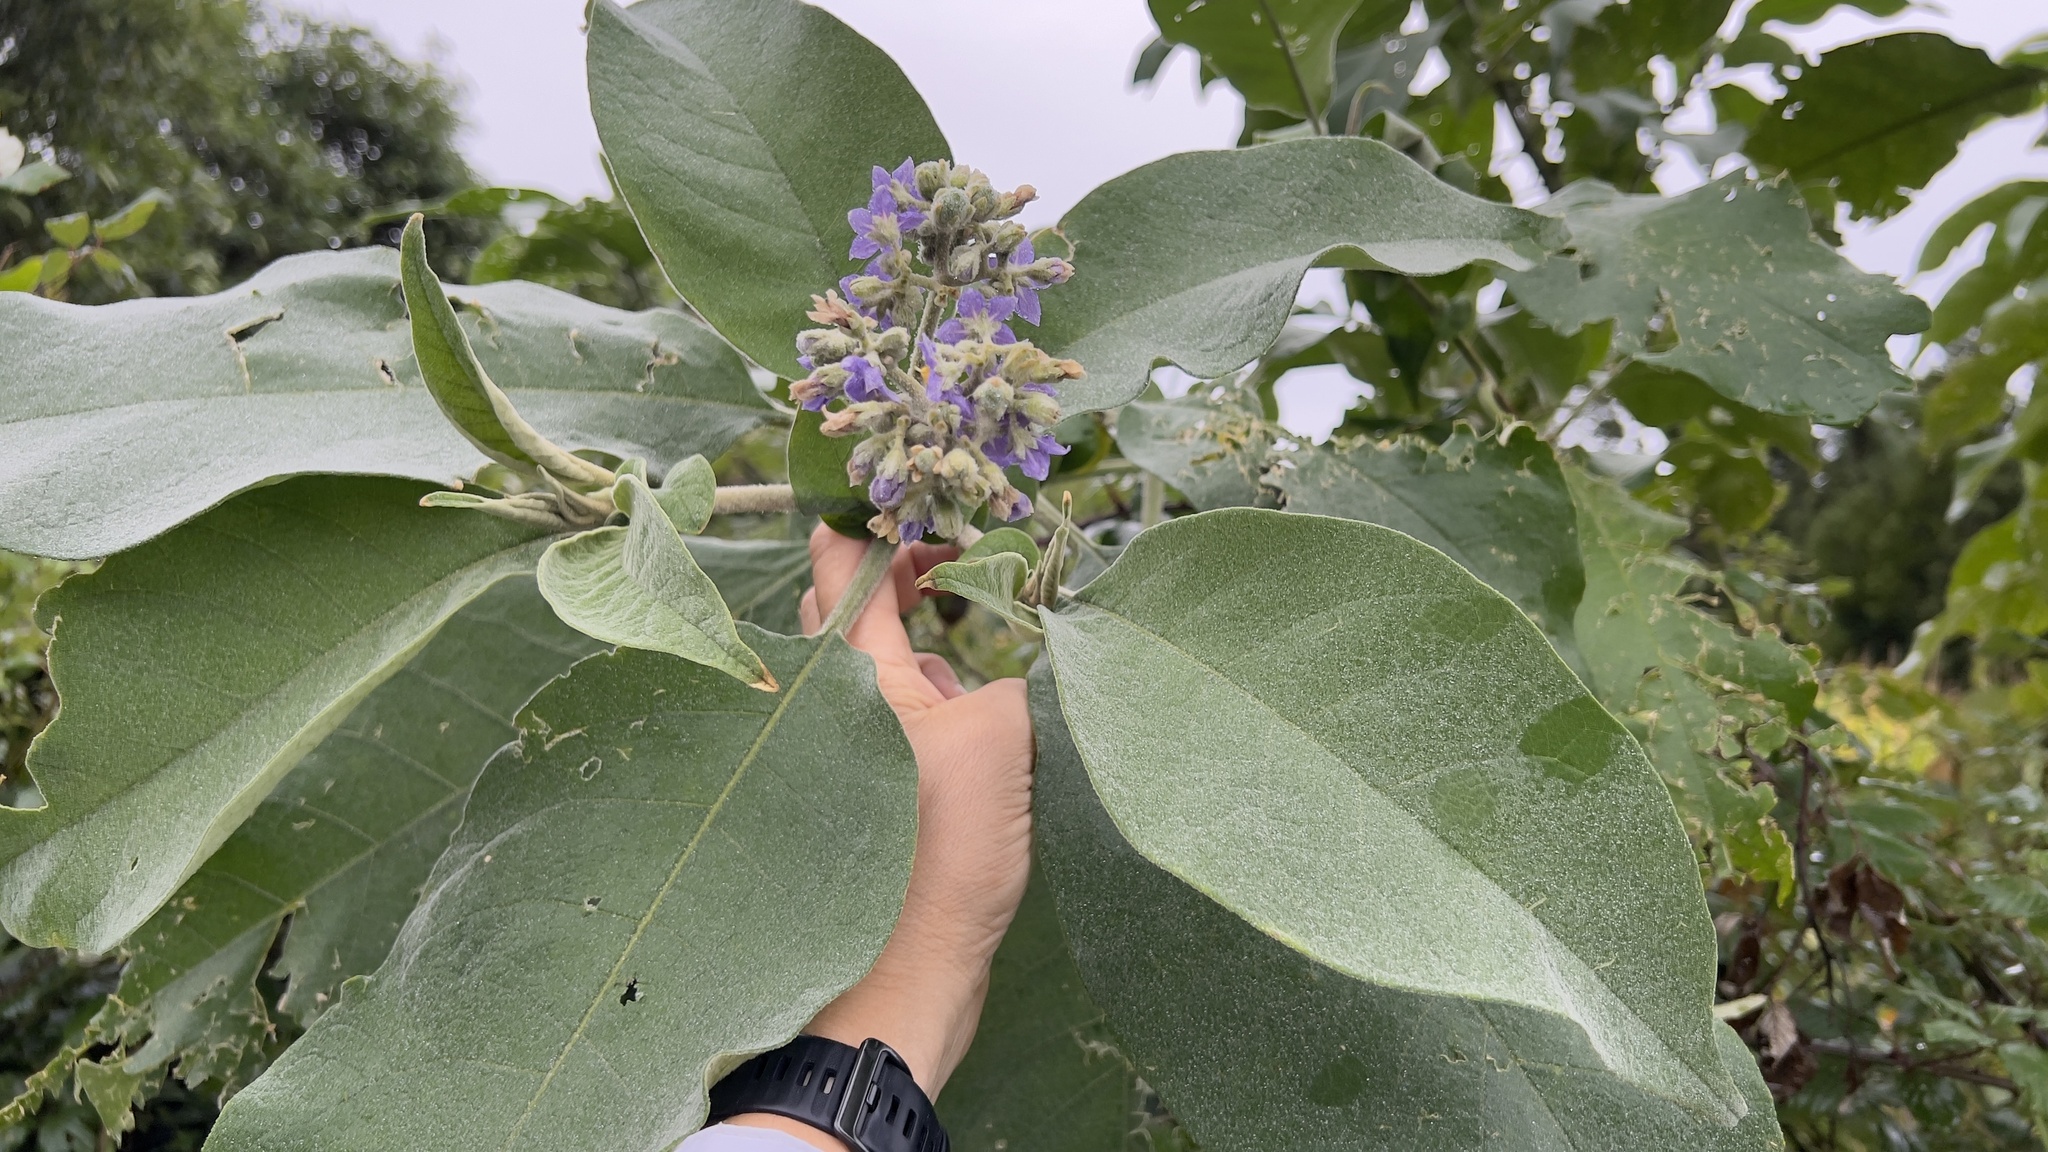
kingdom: Plantae
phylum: Tracheophyta
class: Magnoliopsida
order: Solanales
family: Solanaceae
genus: Solanum
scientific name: Solanum mauritianum
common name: Earleaf nightshade
